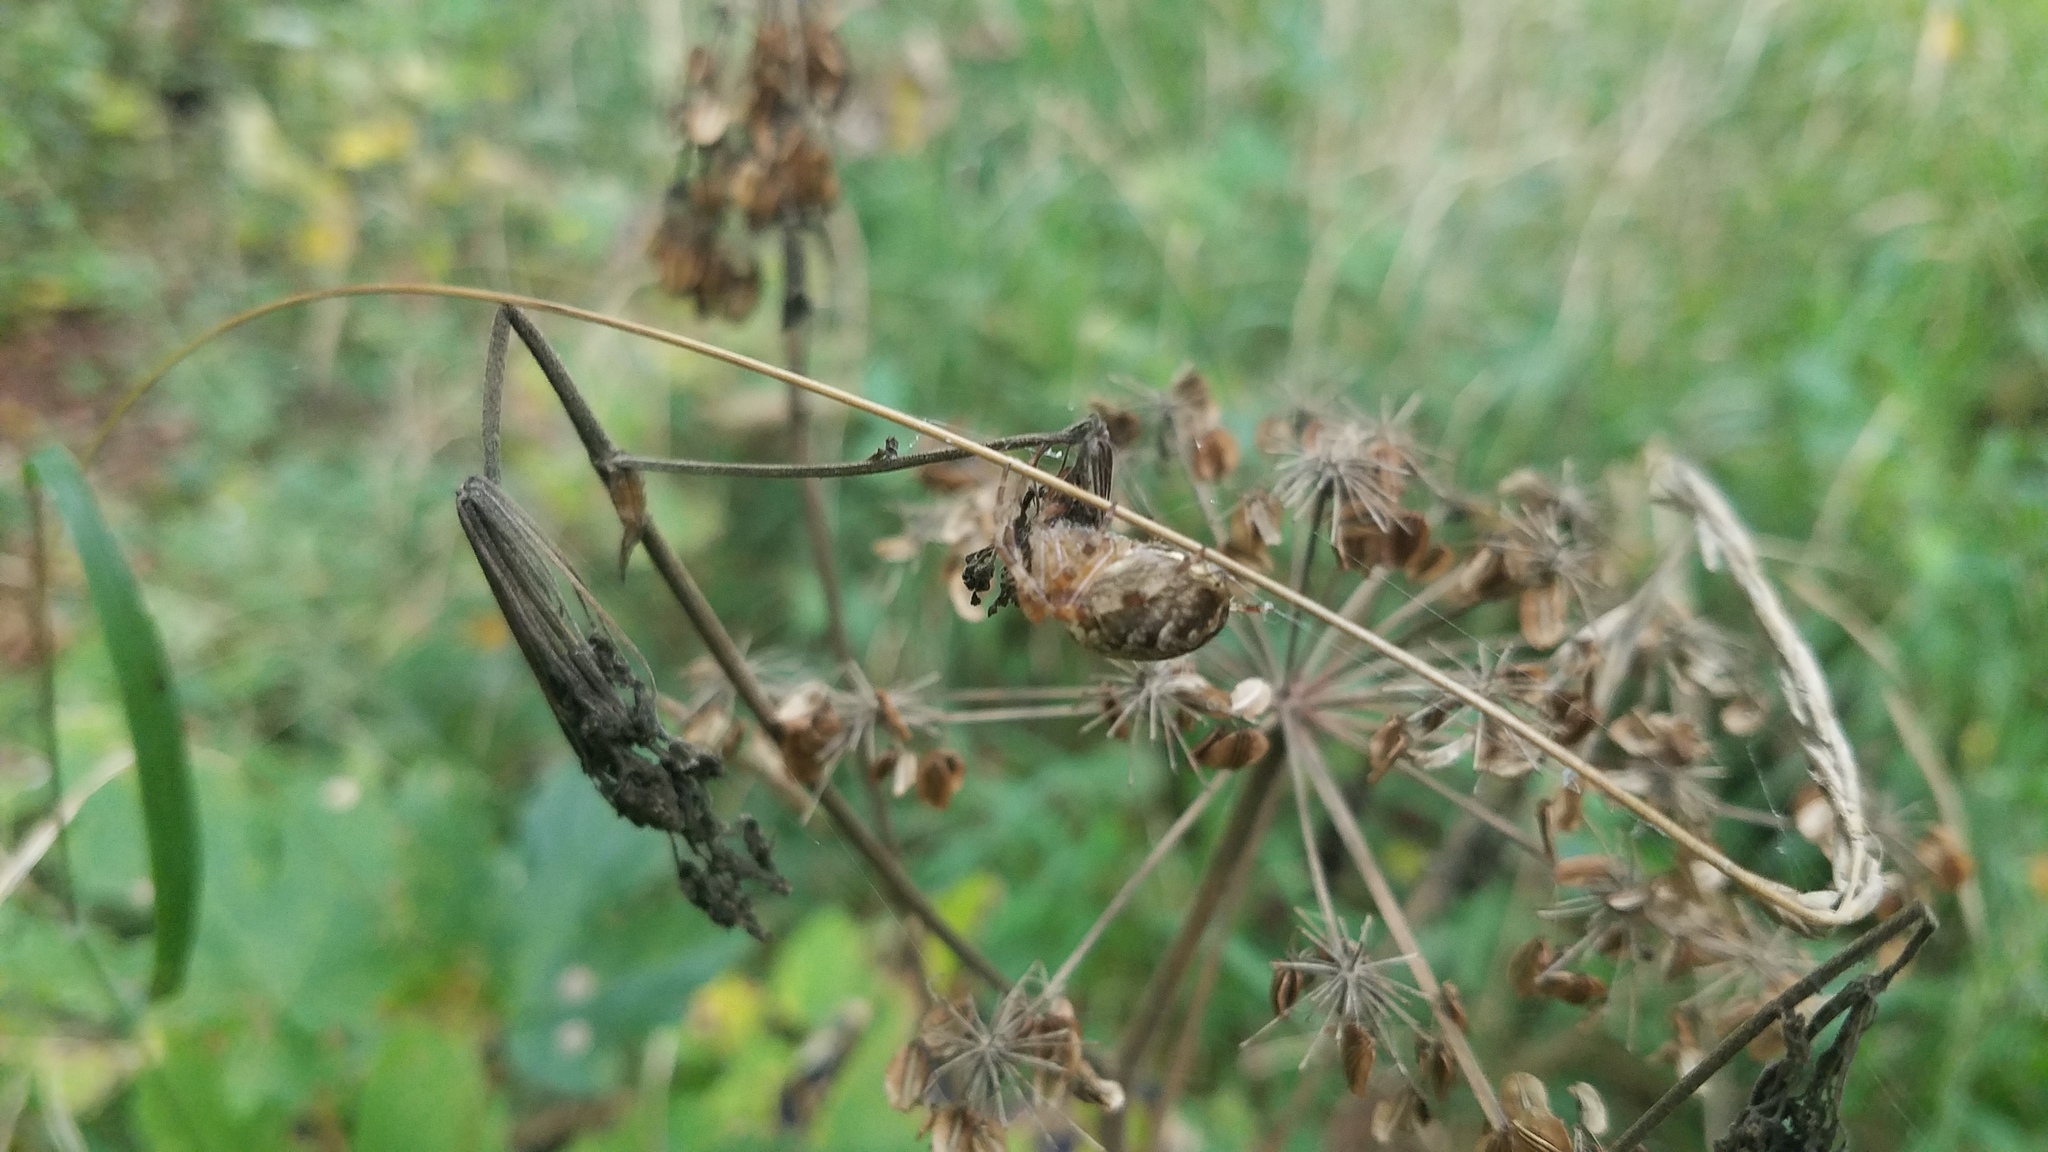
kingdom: Animalia
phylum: Arthropoda
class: Arachnida
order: Araneae
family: Araneidae
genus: Araneus
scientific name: Araneus diadematus
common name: Cross orbweaver
